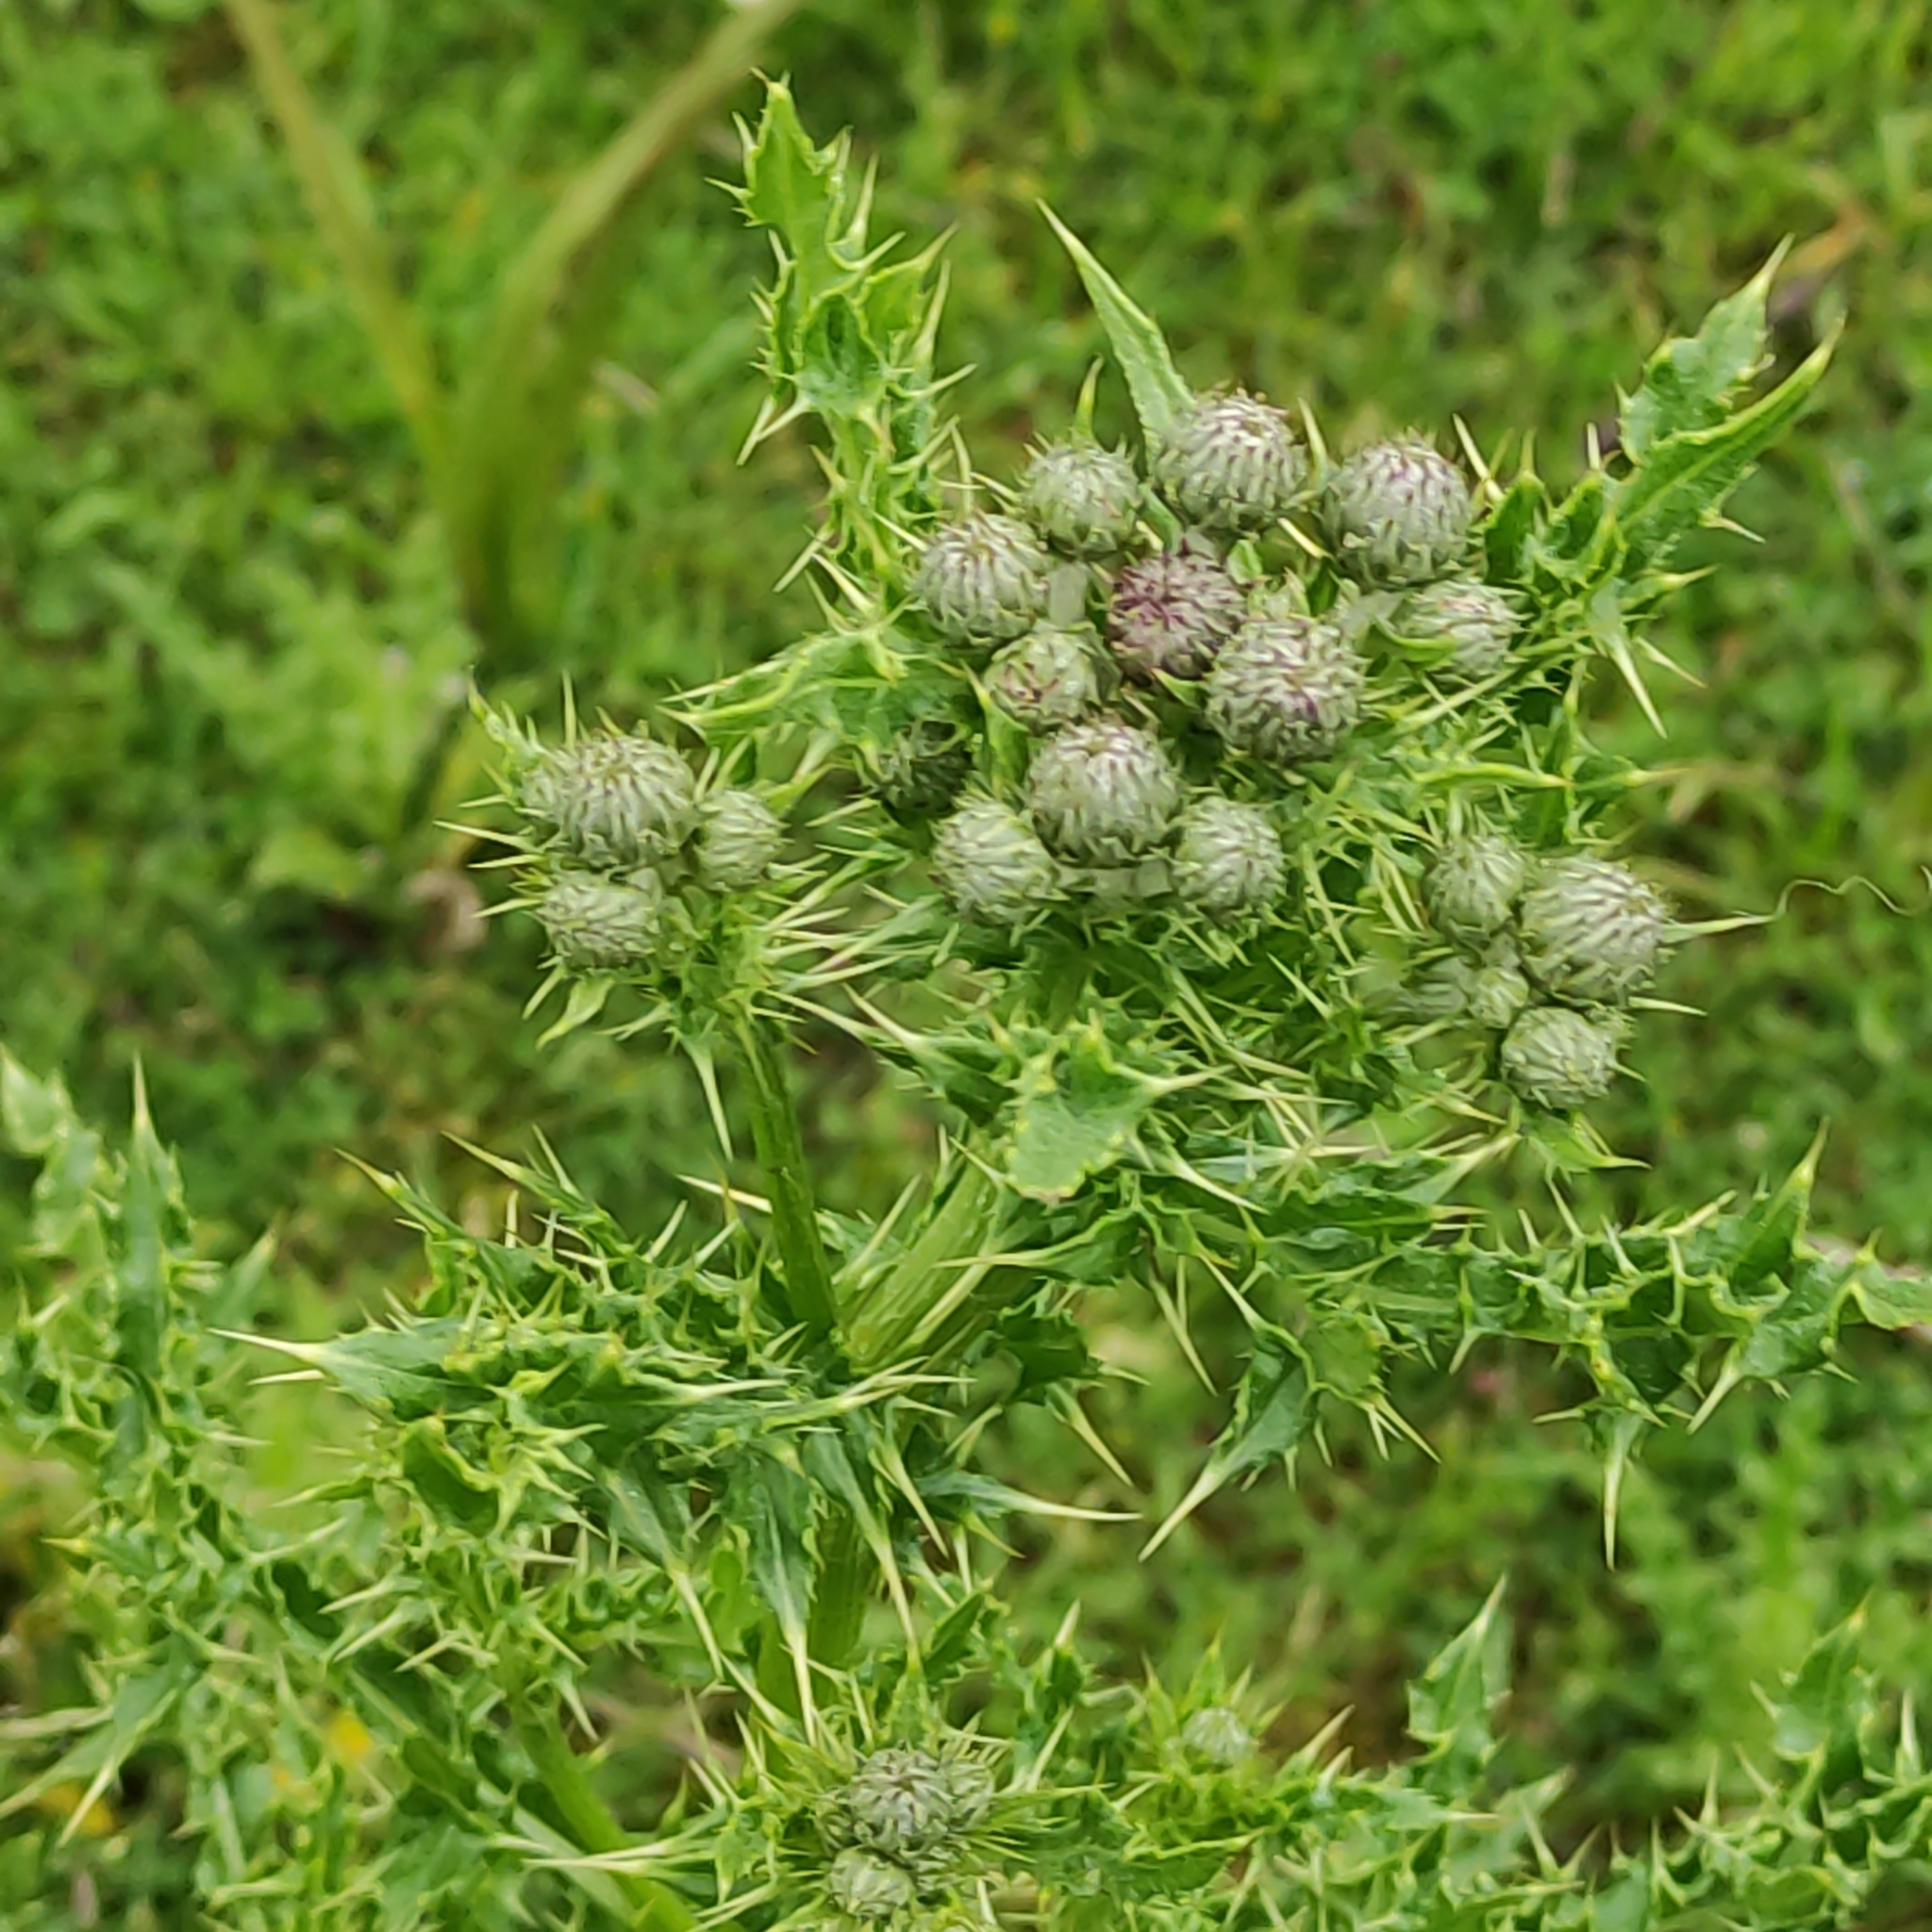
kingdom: Plantae
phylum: Tracheophyta
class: Magnoliopsida
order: Asterales
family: Asteraceae
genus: Cirsium
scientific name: Cirsium arvense
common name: Creeping thistle
